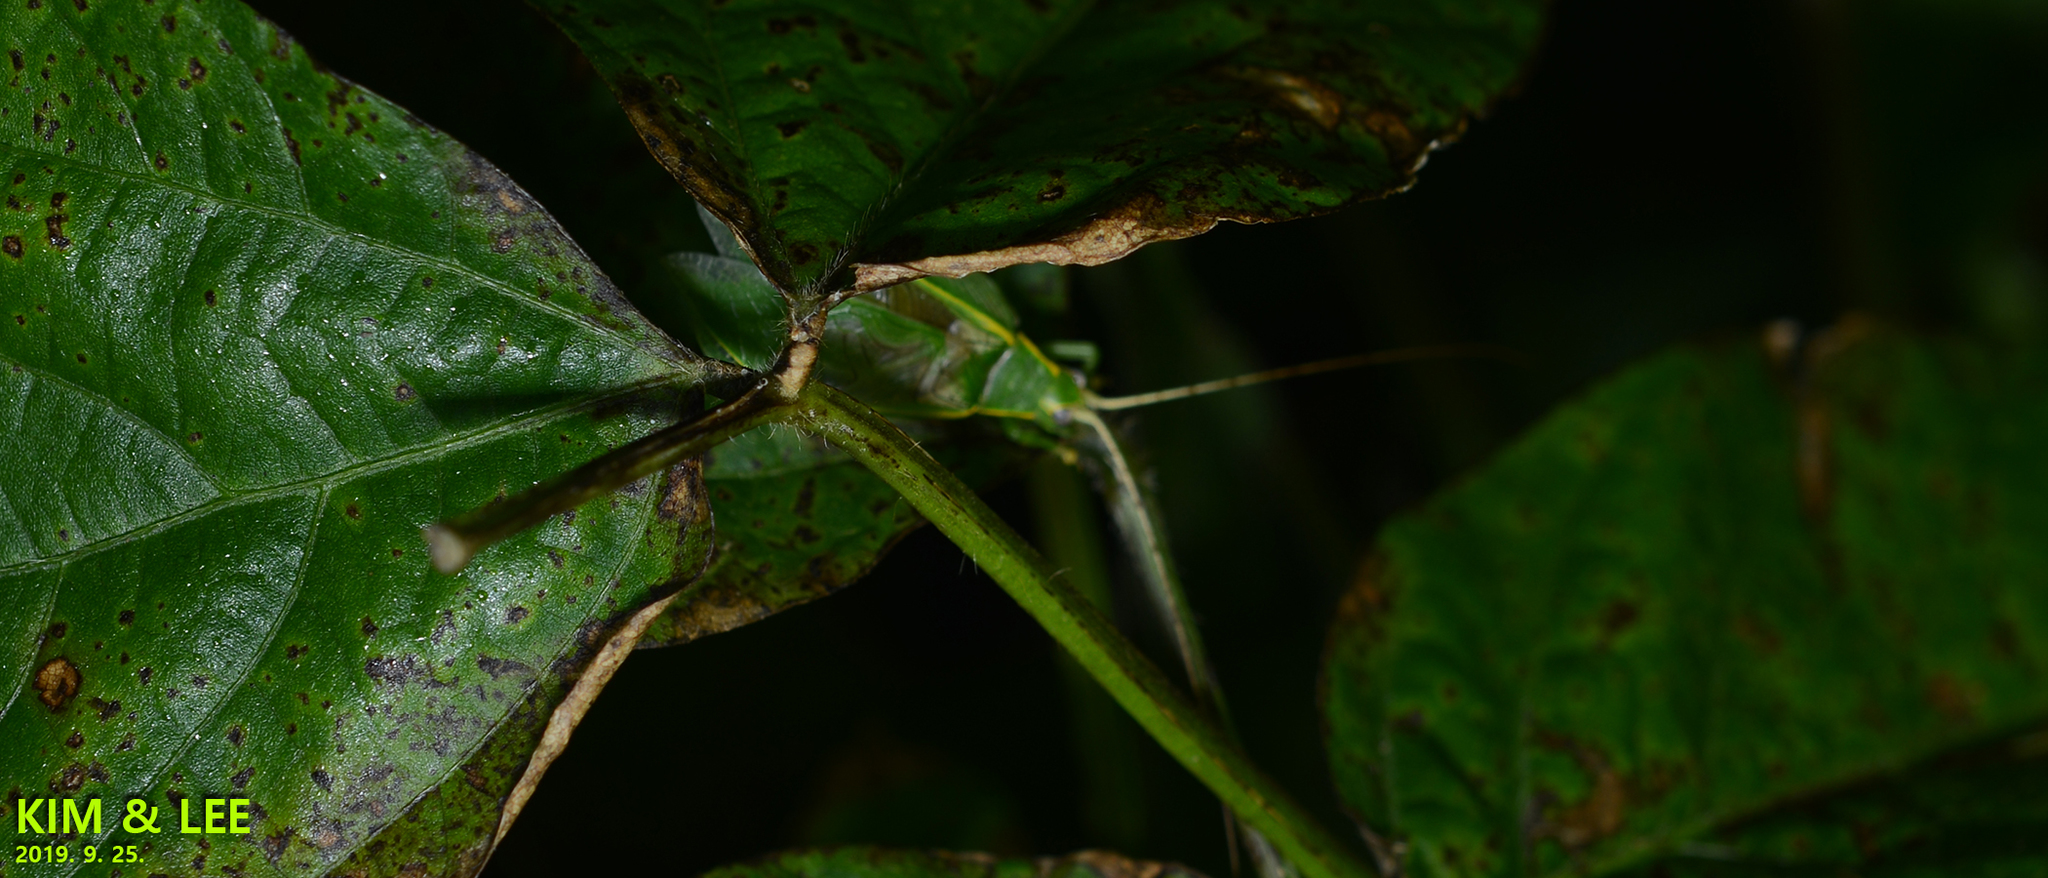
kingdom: Animalia
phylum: Arthropoda
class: Insecta
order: Orthoptera
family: Gryllidae
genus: Truljalia
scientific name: Truljalia hibinonis
